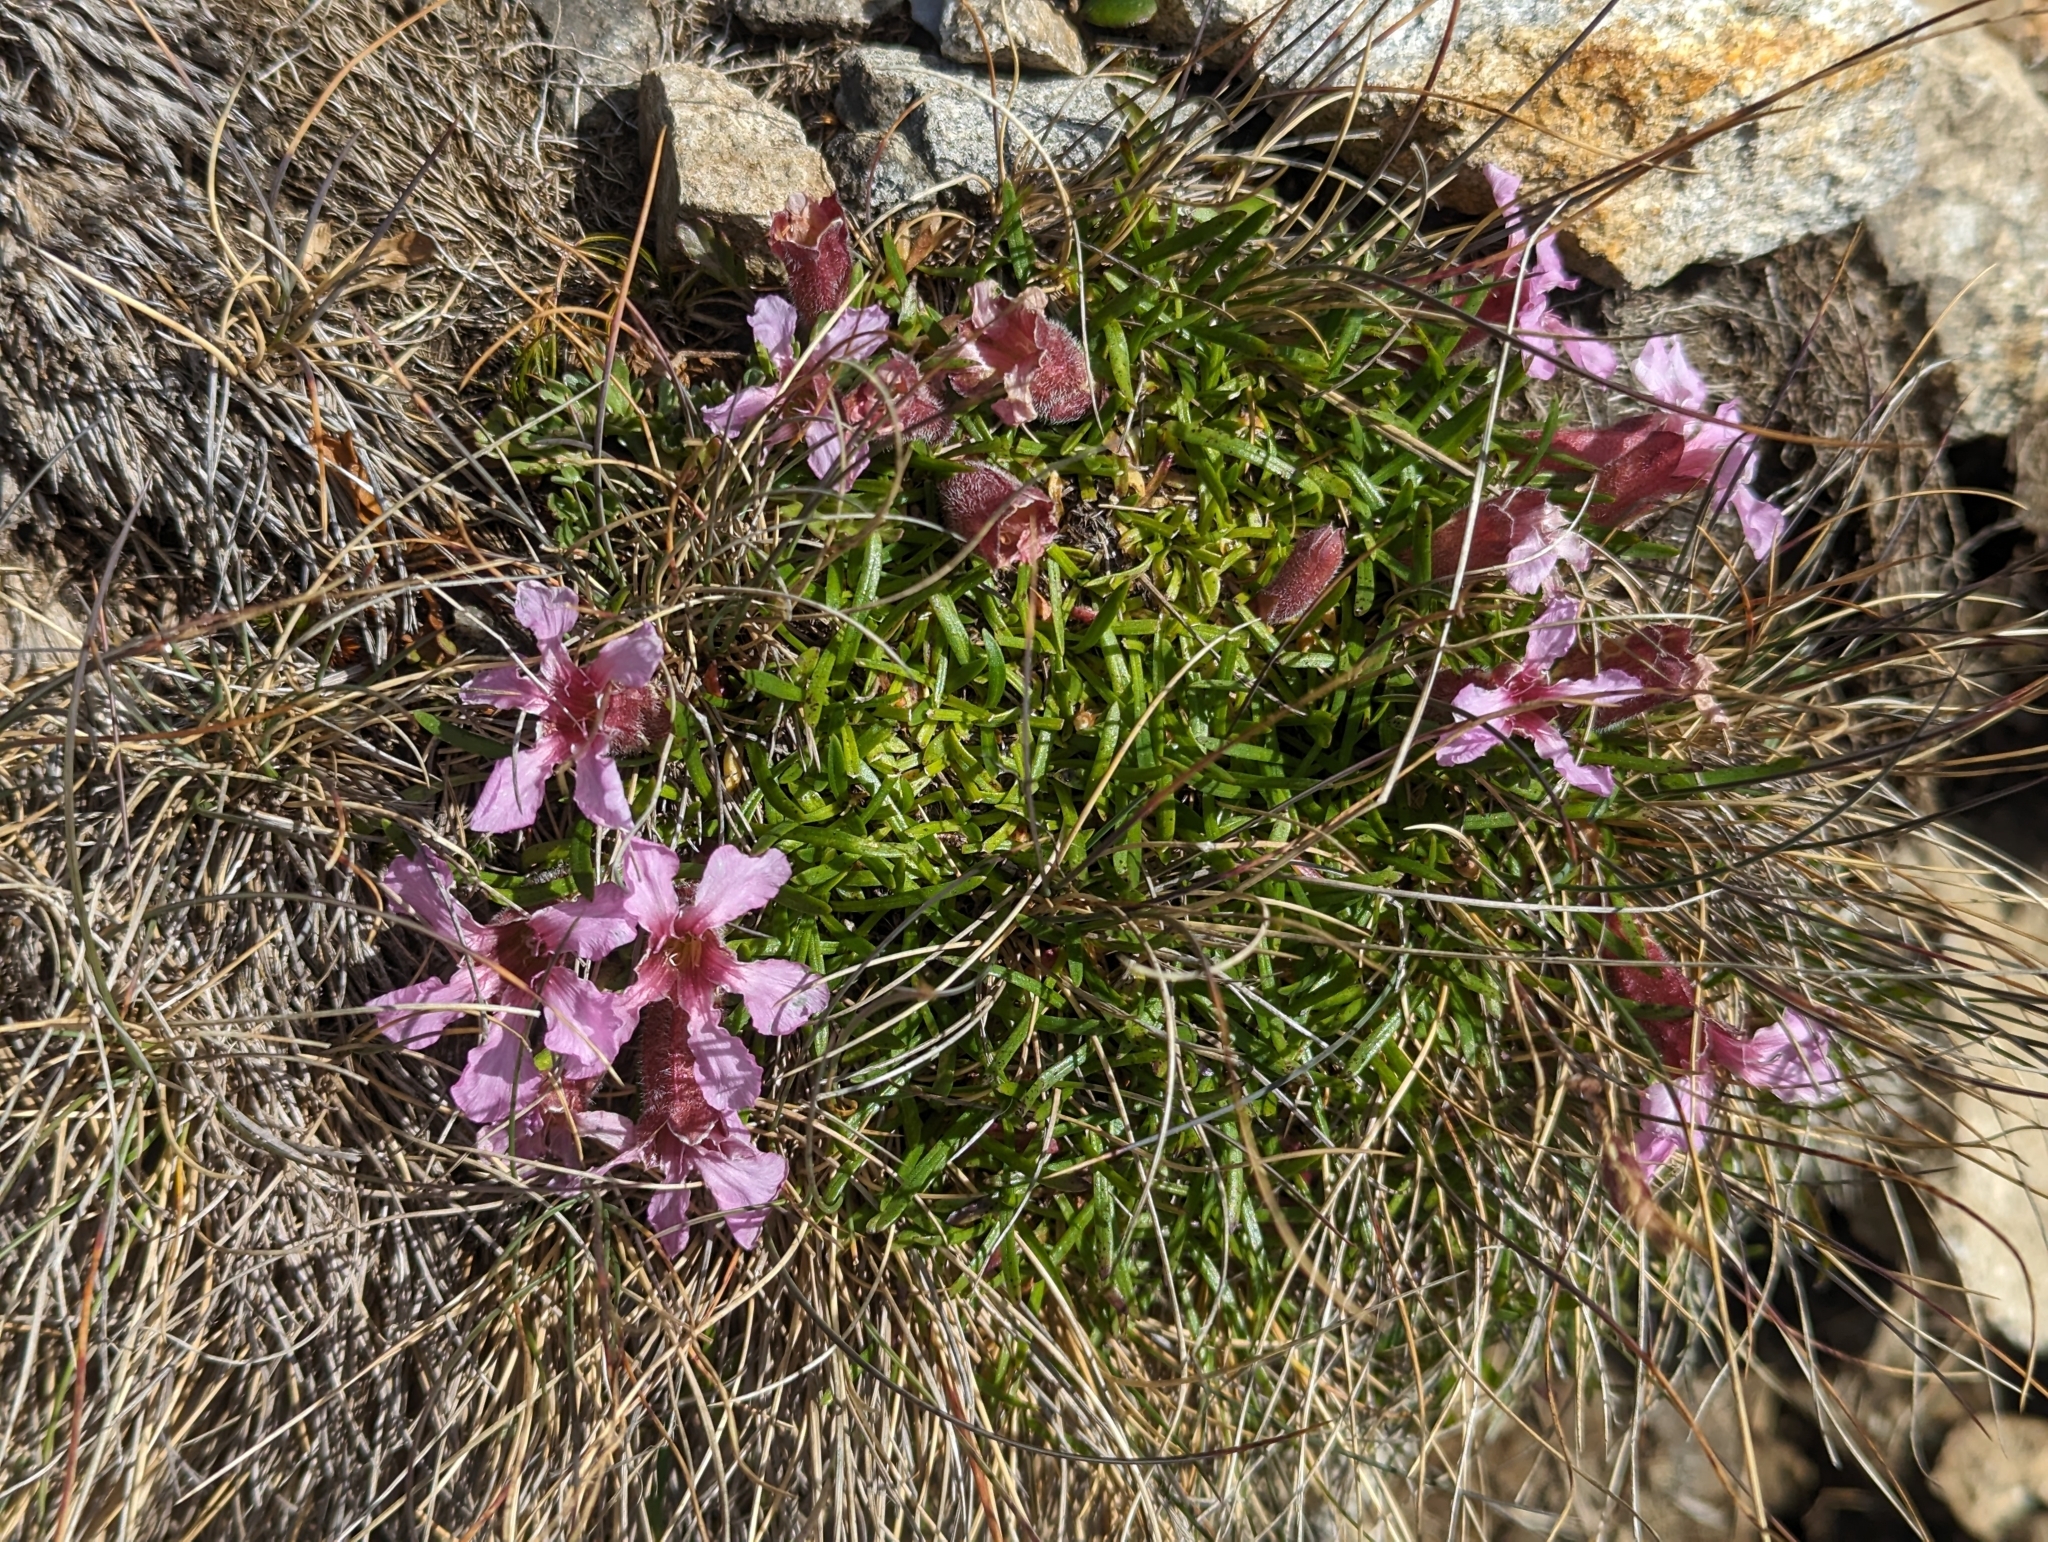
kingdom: Plantae
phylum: Tracheophyta
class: Magnoliopsida
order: Caryophyllales
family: Caryophyllaceae
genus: Saponaria
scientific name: Saponaria pumila
